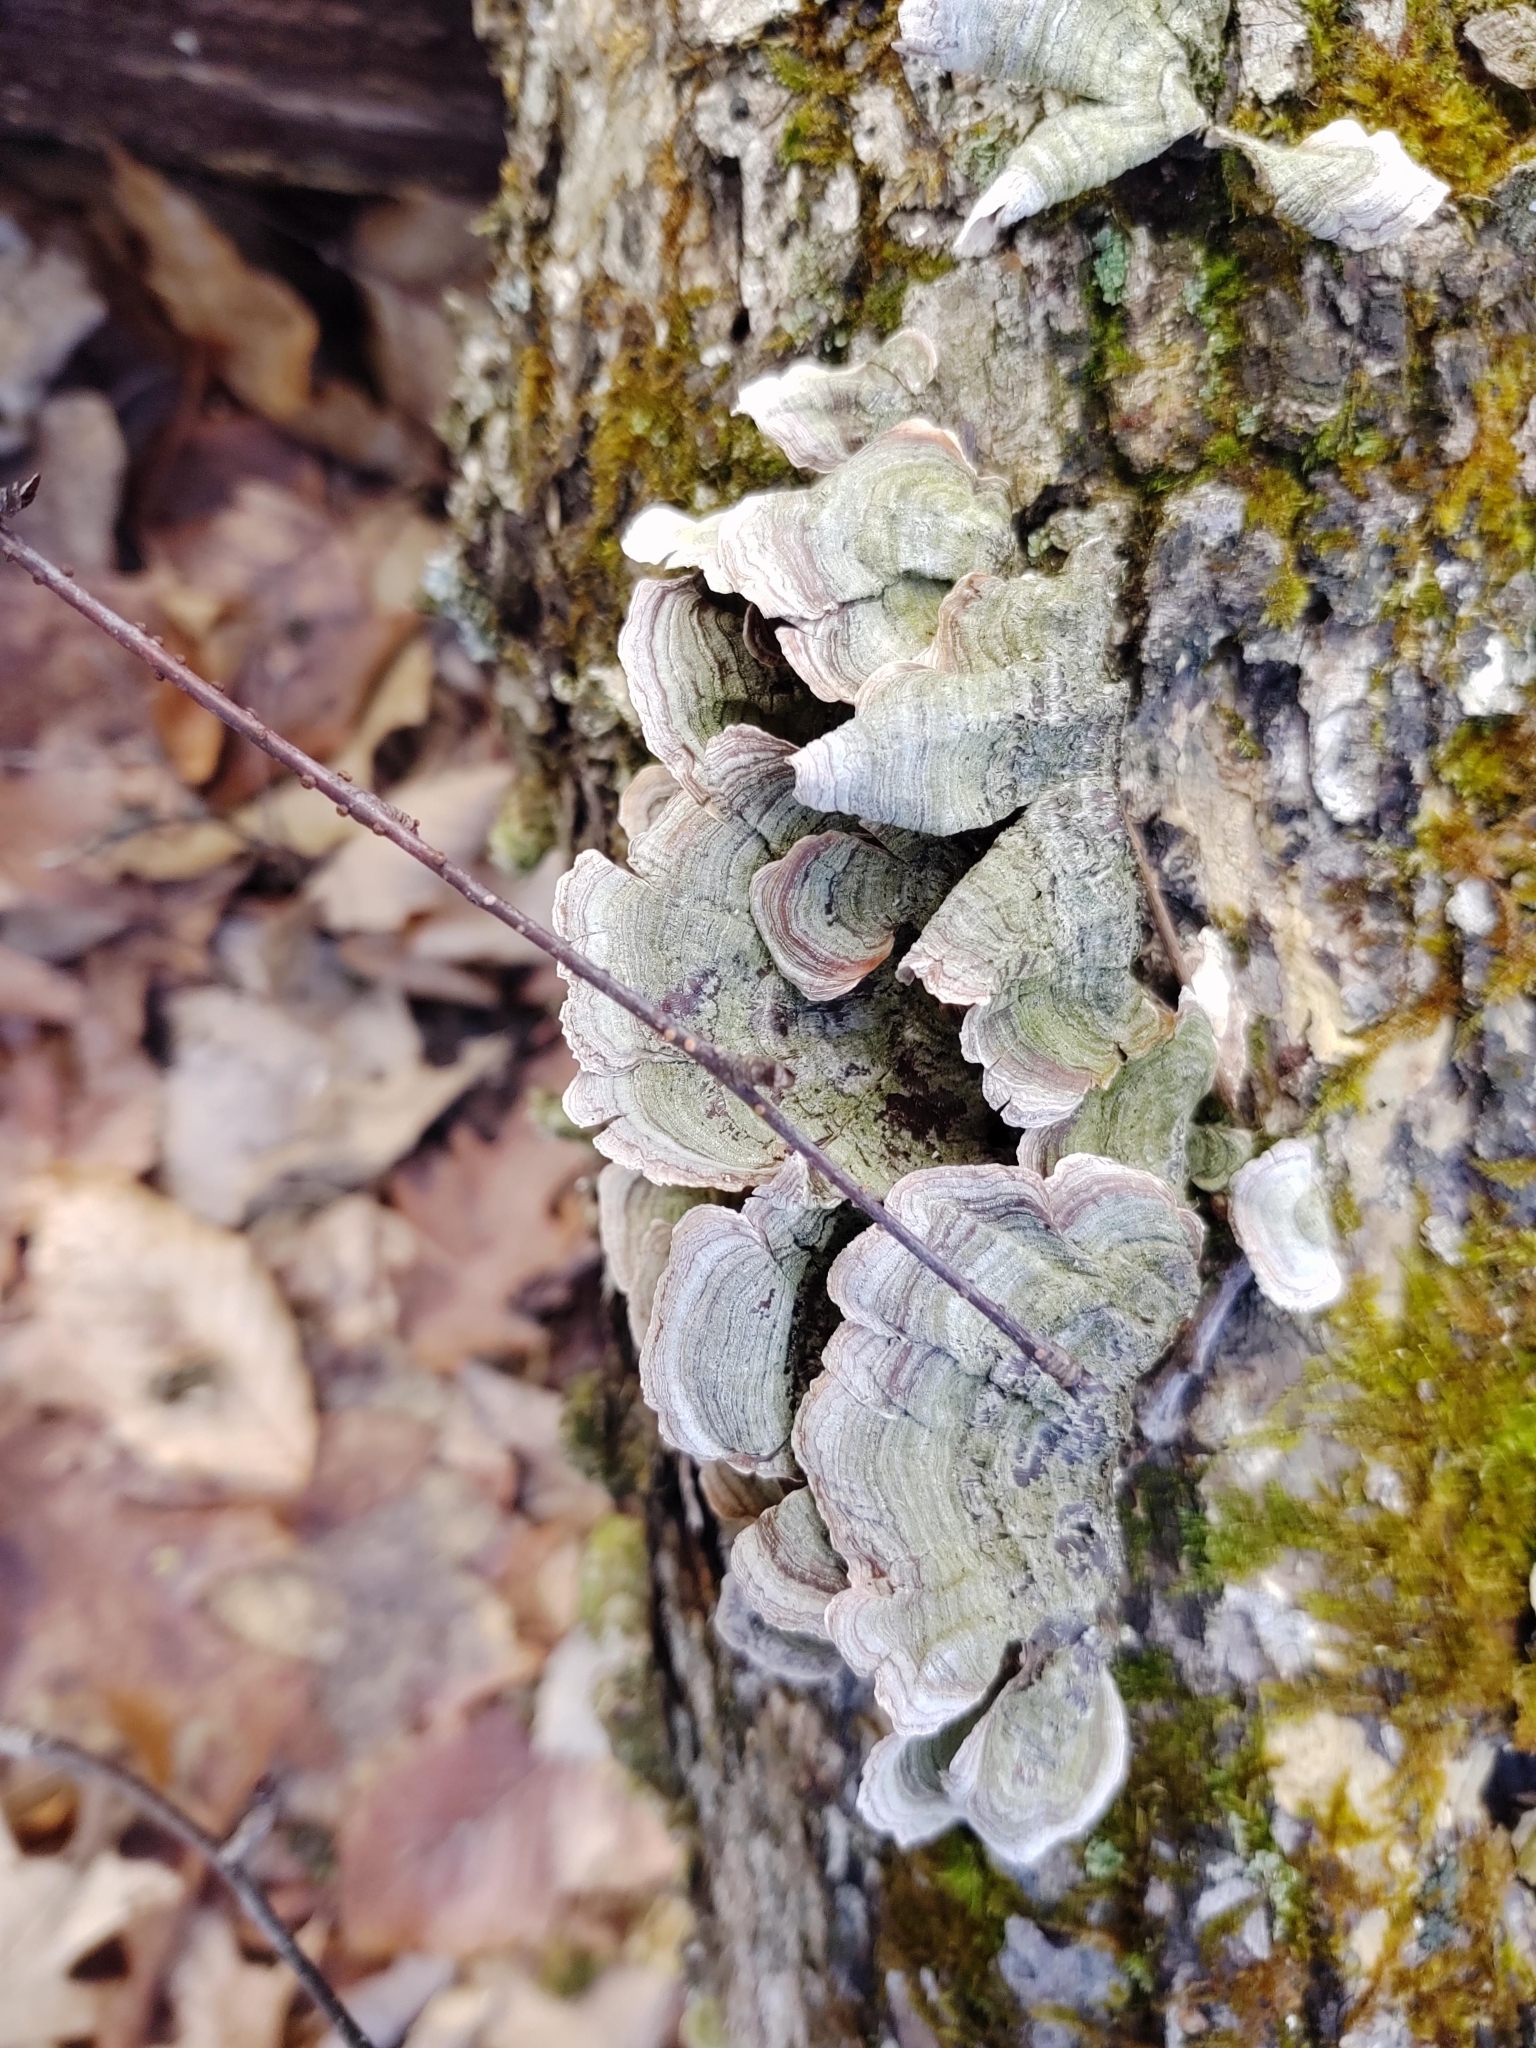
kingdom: Fungi
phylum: Basidiomycota
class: Agaricomycetes
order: Russulales
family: Stereaceae
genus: Stereum
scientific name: Stereum ostrea
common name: False turkeytail
